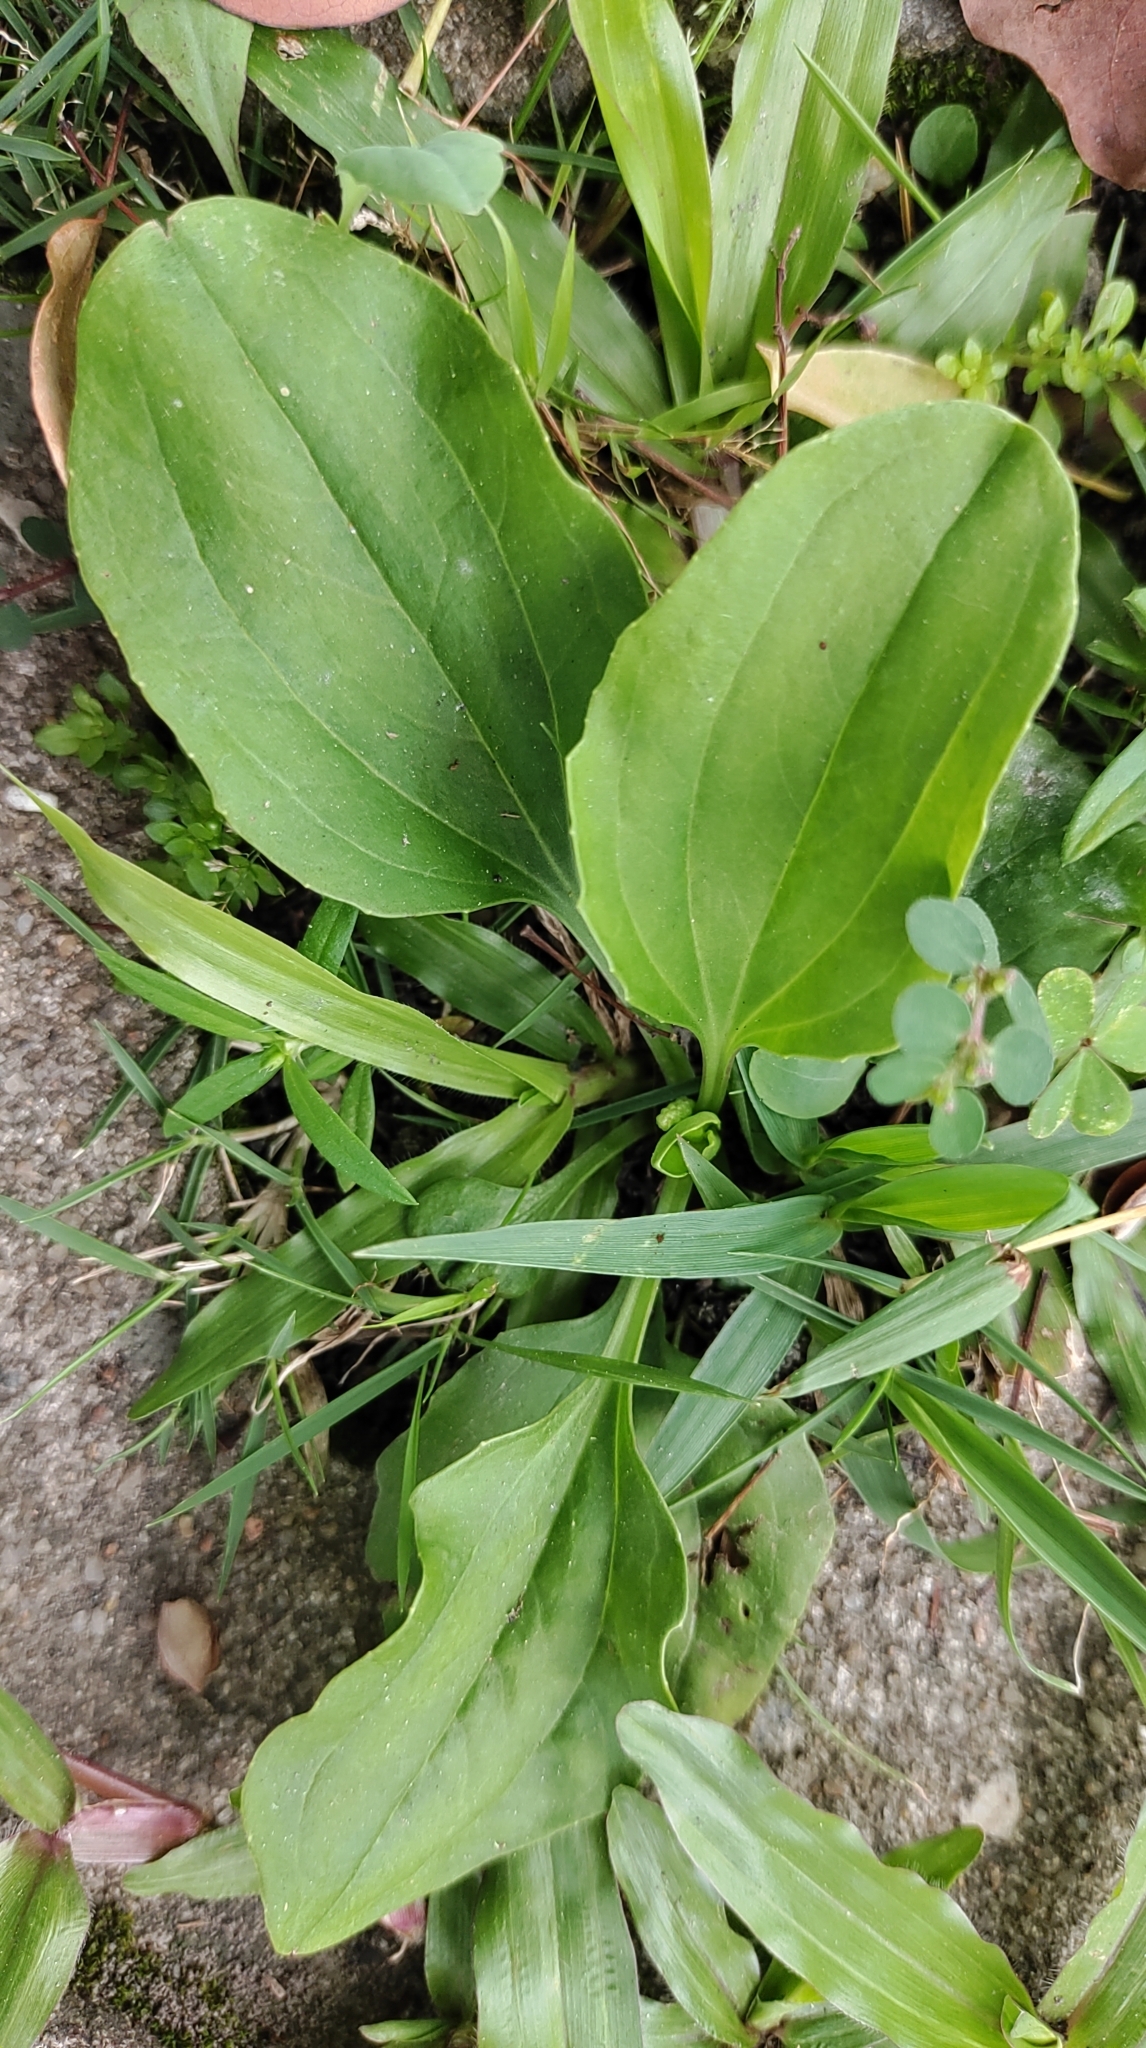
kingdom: Plantae
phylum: Tracheophyta
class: Magnoliopsida
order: Lamiales
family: Plantaginaceae
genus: Plantago
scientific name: Plantago asiatica
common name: Psyllium
